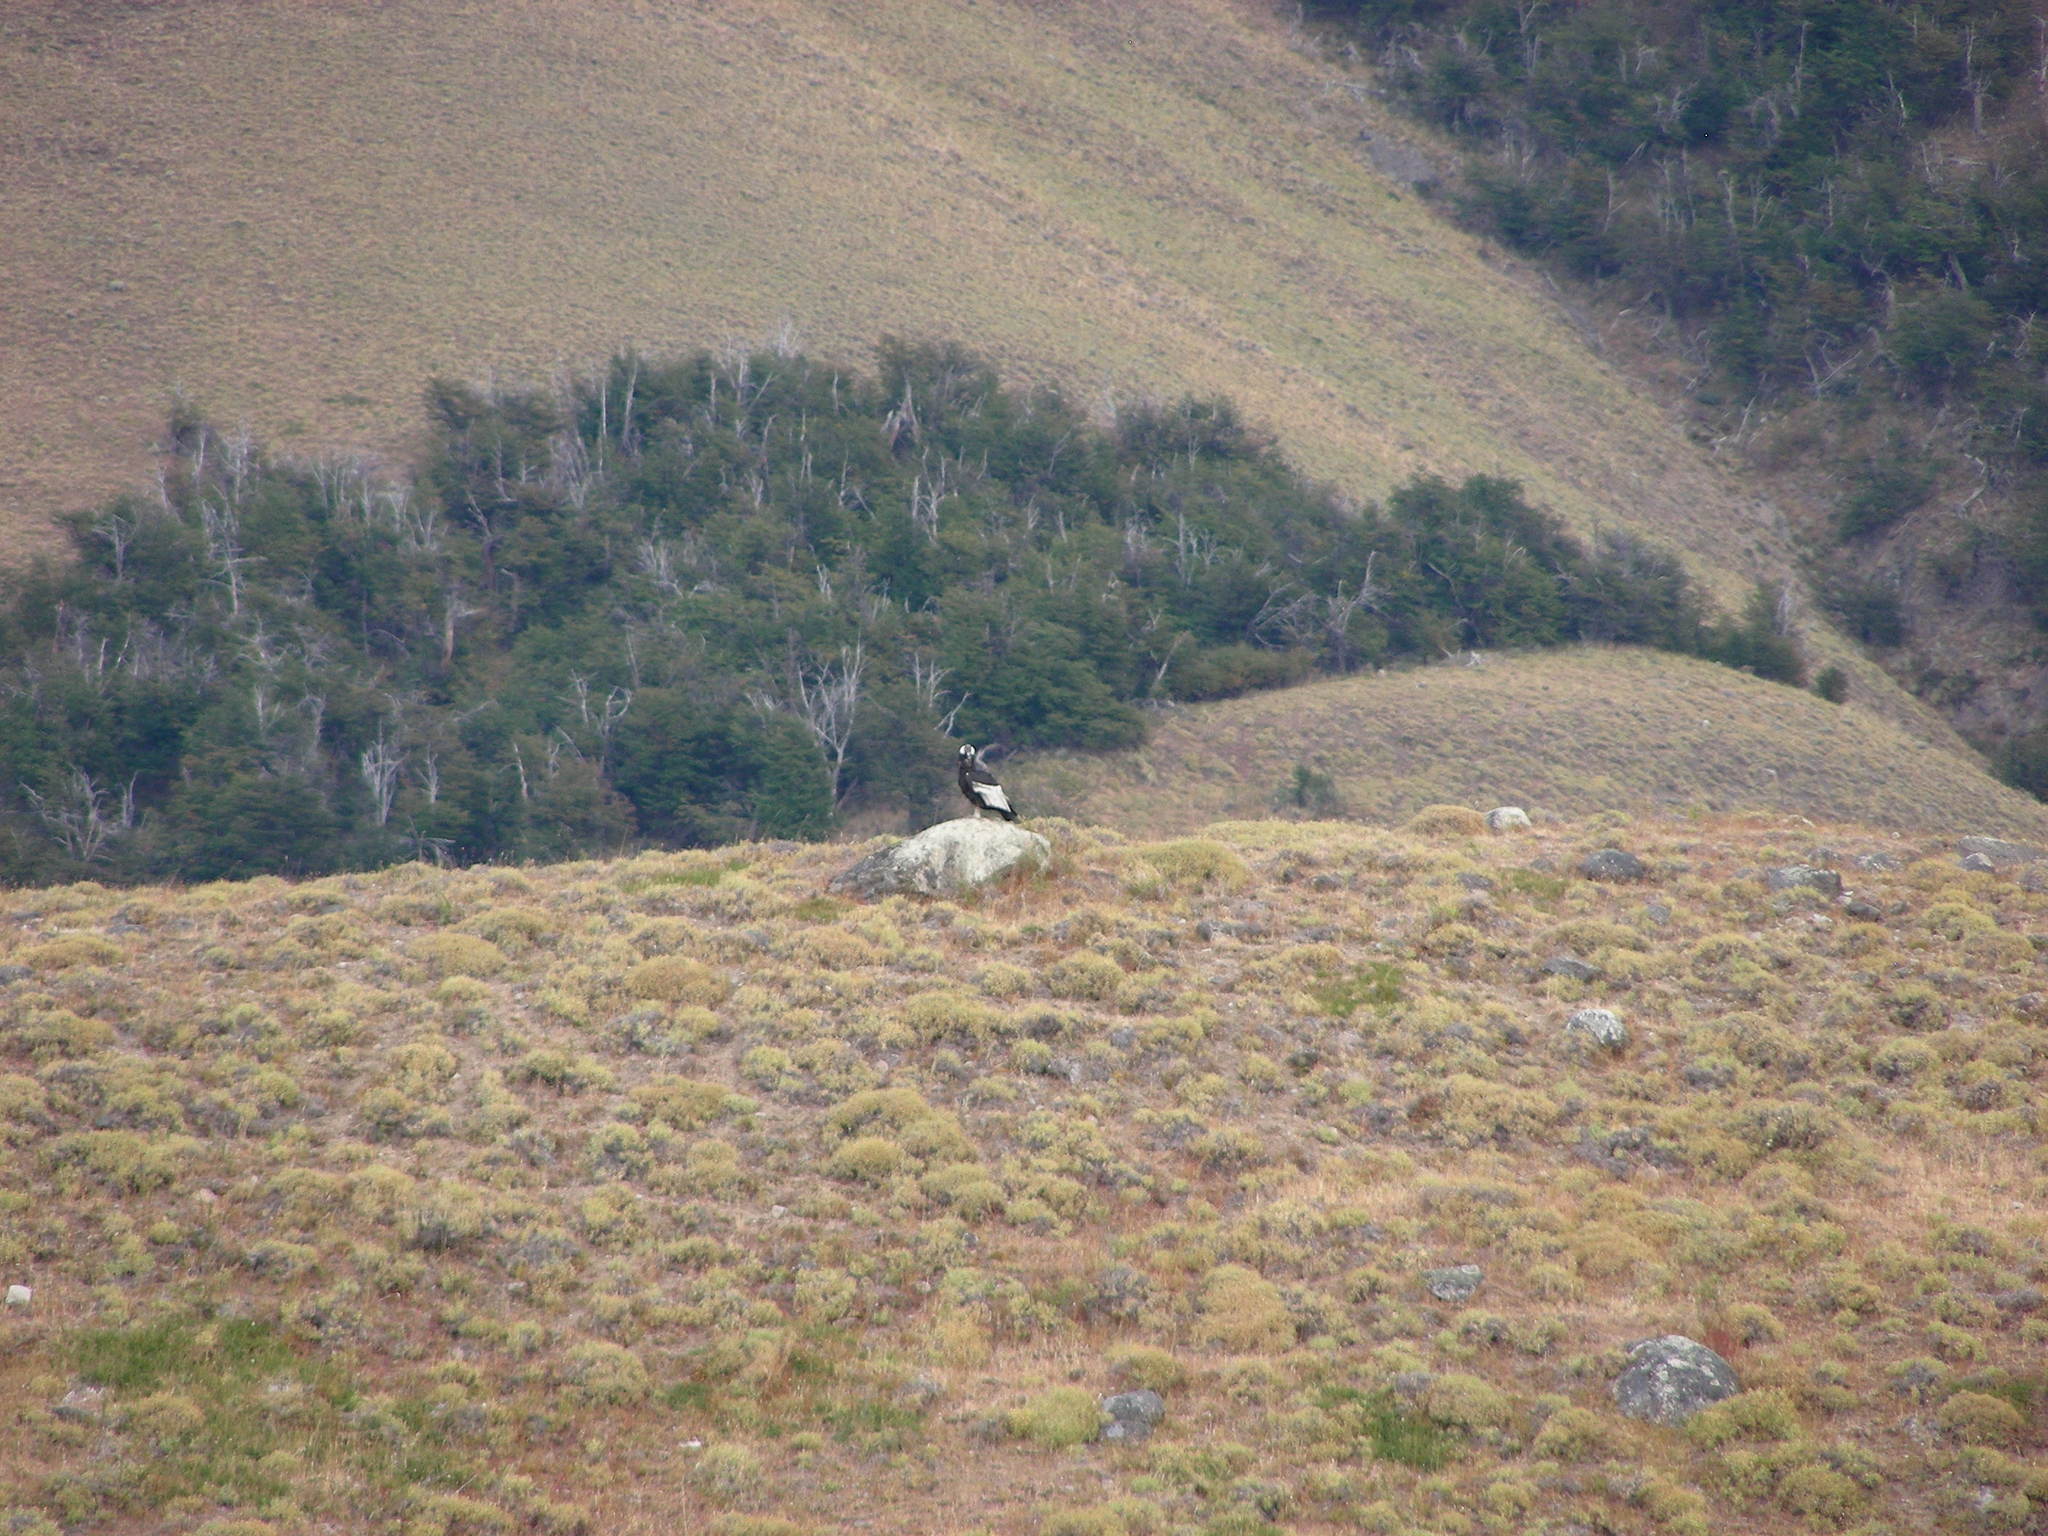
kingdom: Animalia
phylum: Chordata
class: Aves
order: Accipitriformes
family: Cathartidae
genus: Vultur
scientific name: Vultur gryphus
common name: Andean condor
